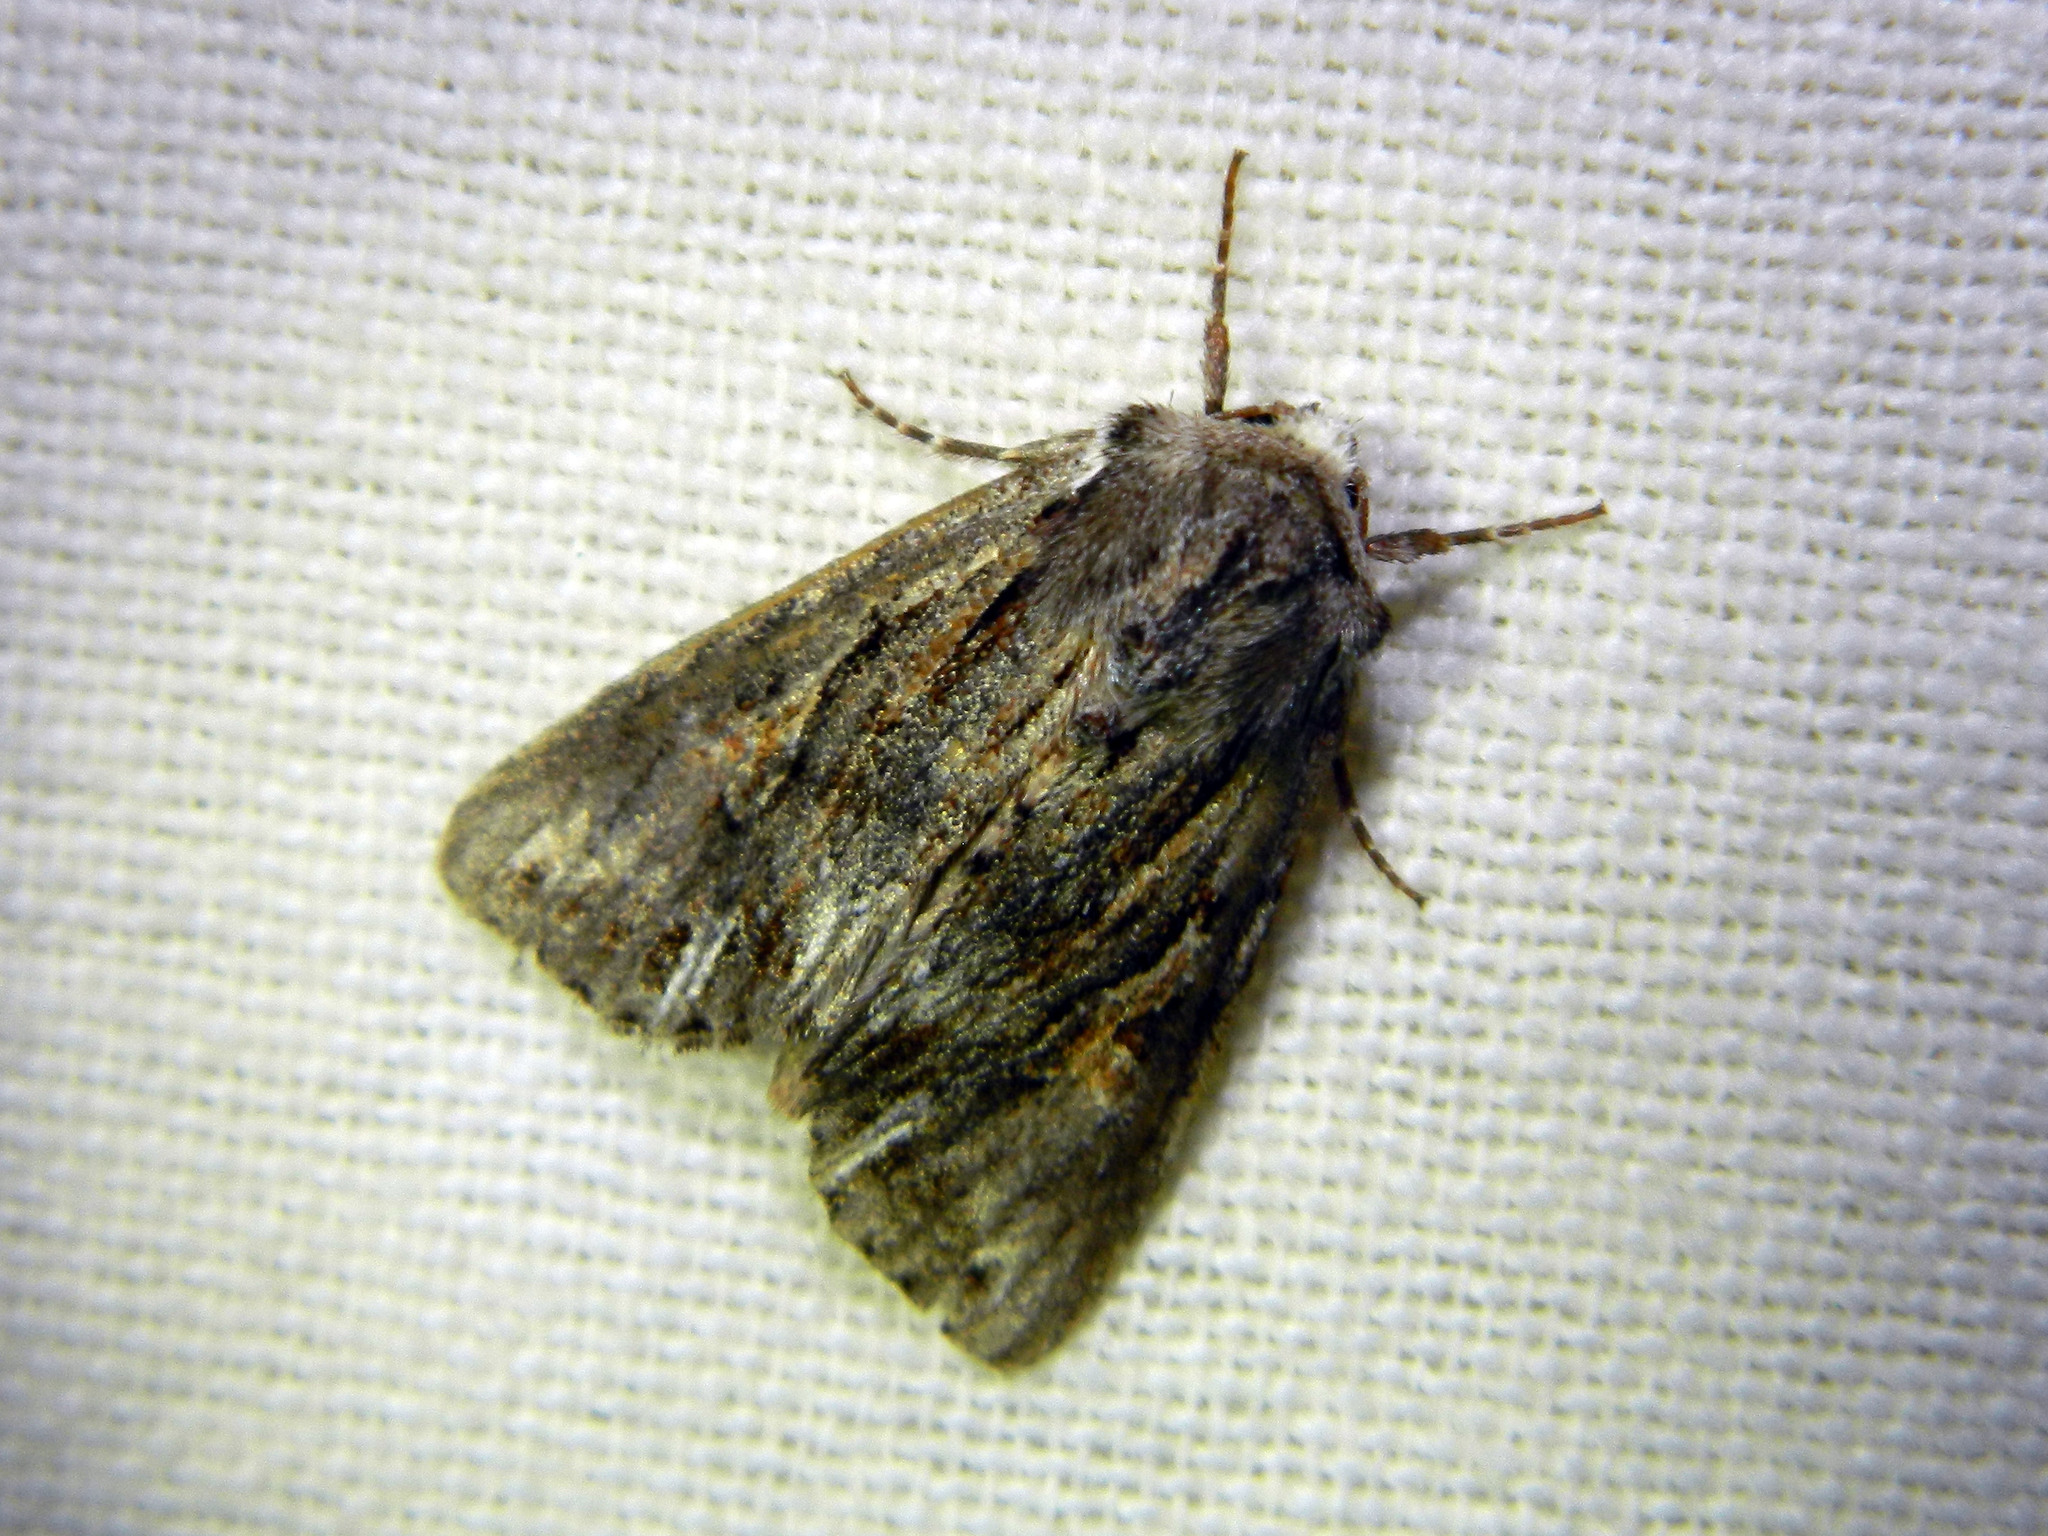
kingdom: Animalia
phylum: Arthropoda
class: Insecta
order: Lepidoptera
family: Noctuidae
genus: Achatia
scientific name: Achatia evicta
